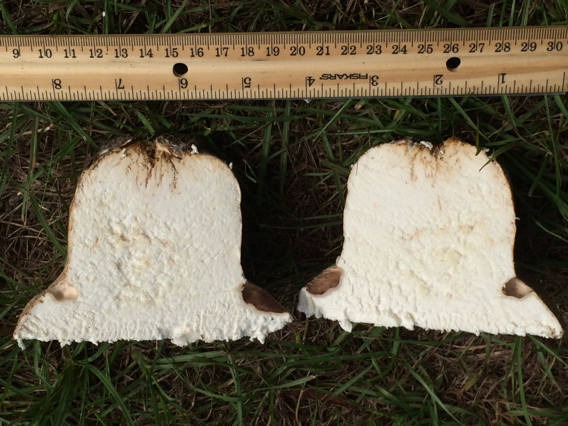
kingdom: Fungi
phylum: Basidiomycota
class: Agaricomycetes
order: Agaricales
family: Lycoperdaceae
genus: Bovistella
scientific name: Bovistella utriformis
